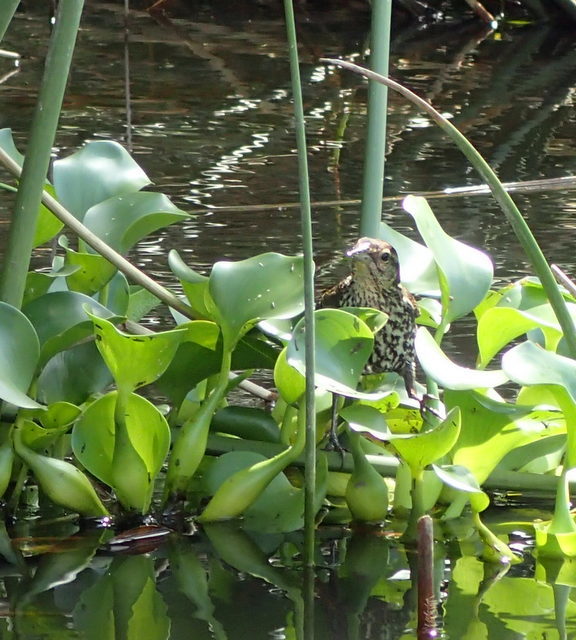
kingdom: Animalia
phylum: Chordata
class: Aves
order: Passeriformes
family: Icteridae
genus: Agelaius
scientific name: Agelaius phoeniceus
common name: Red-winged blackbird
